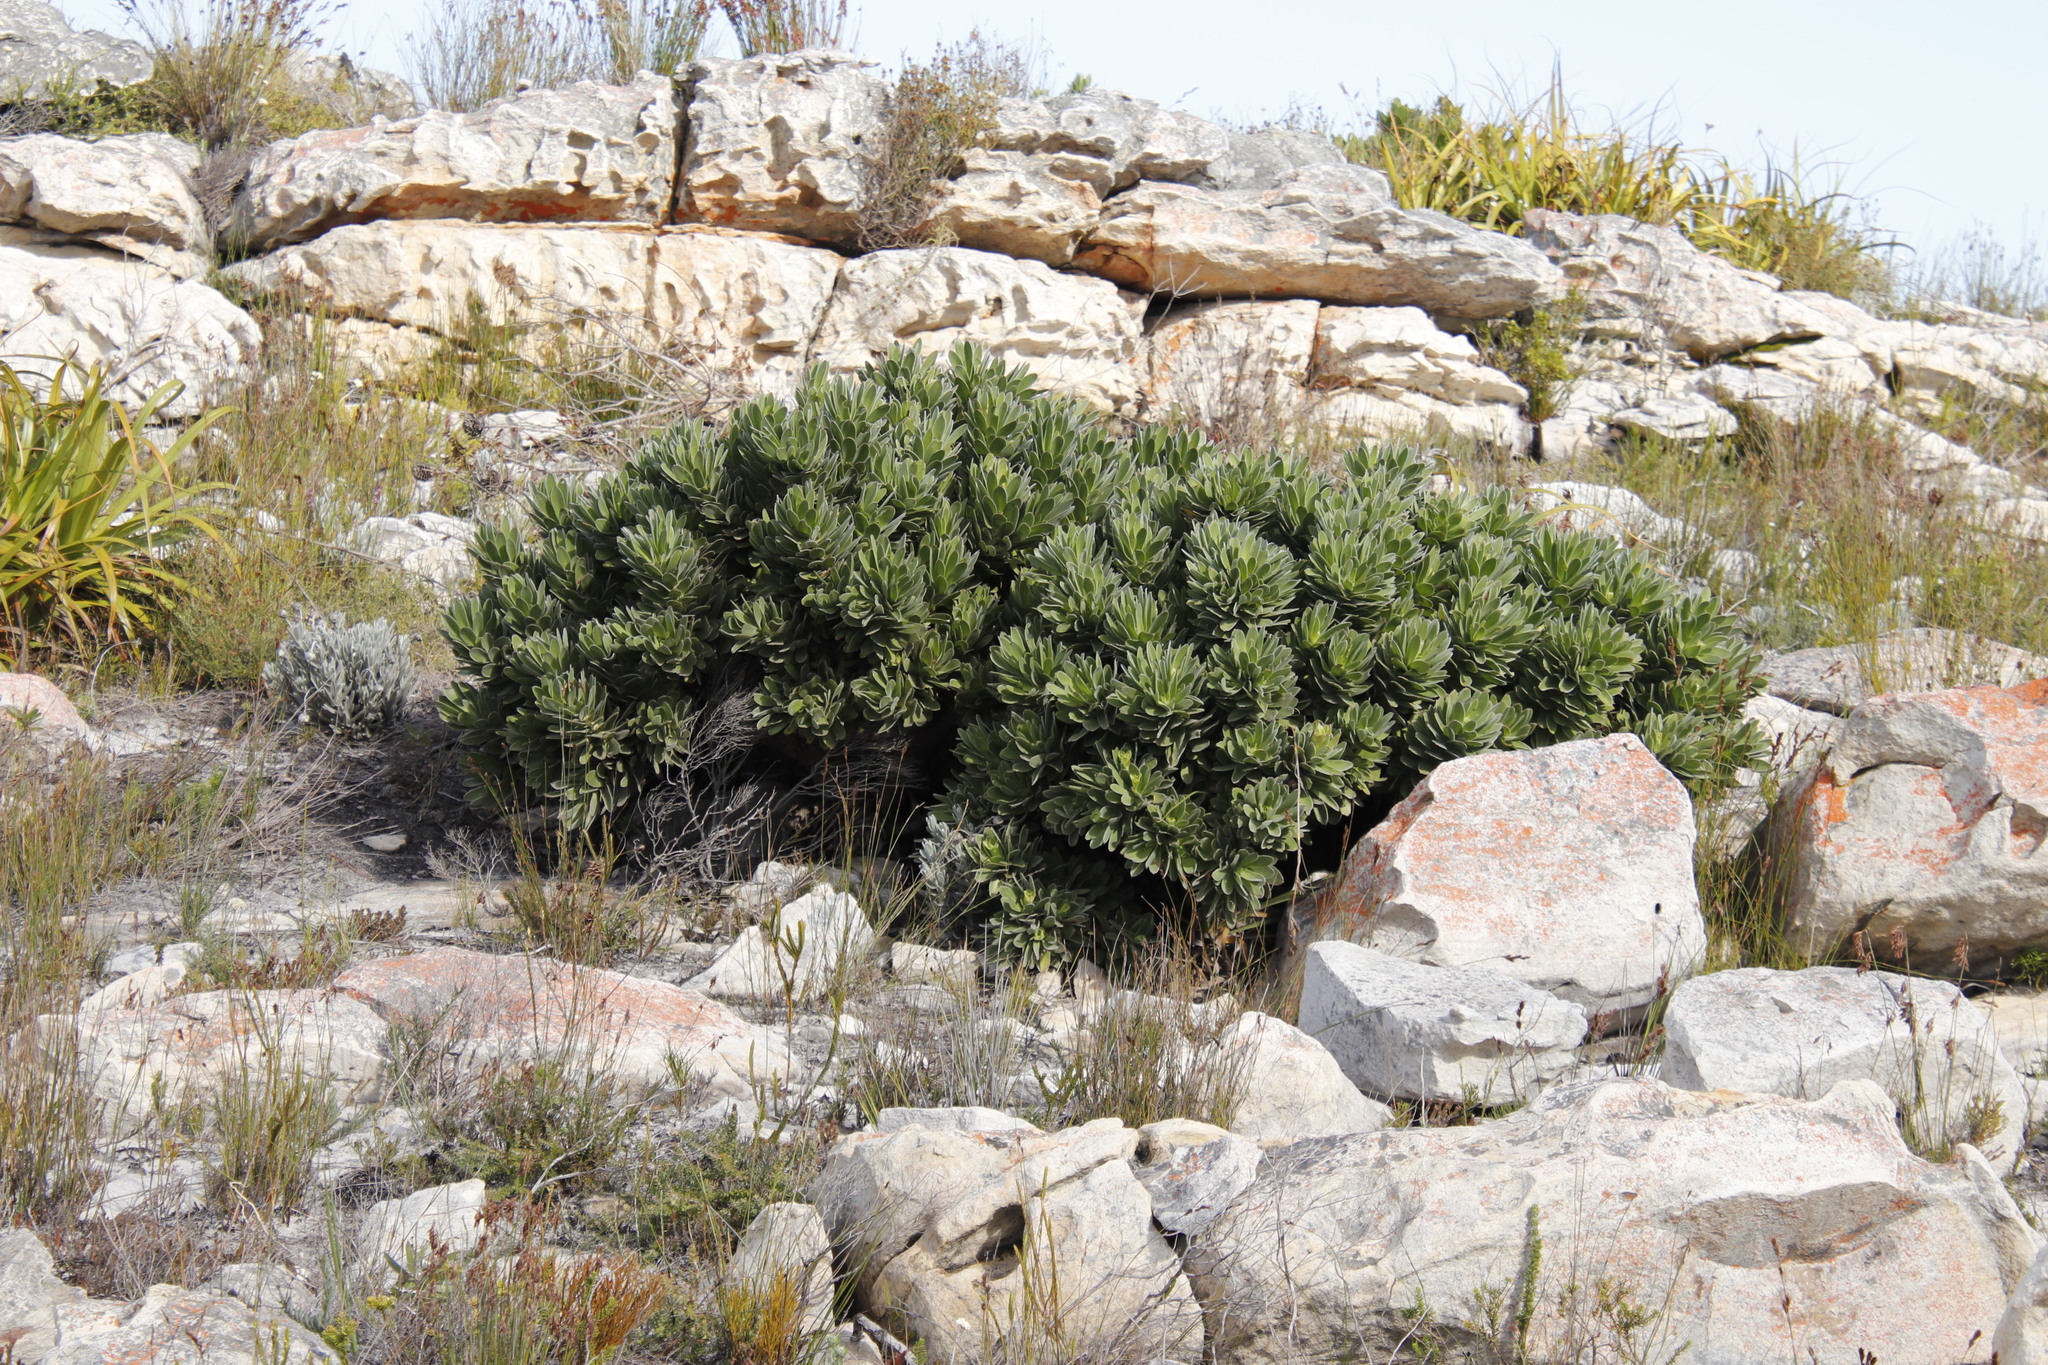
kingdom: Plantae
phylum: Tracheophyta
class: Magnoliopsida
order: Proteales
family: Proteaceae
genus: Mimetes
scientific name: Mimetes fimbriifolius
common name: Fringed bottlebrush
